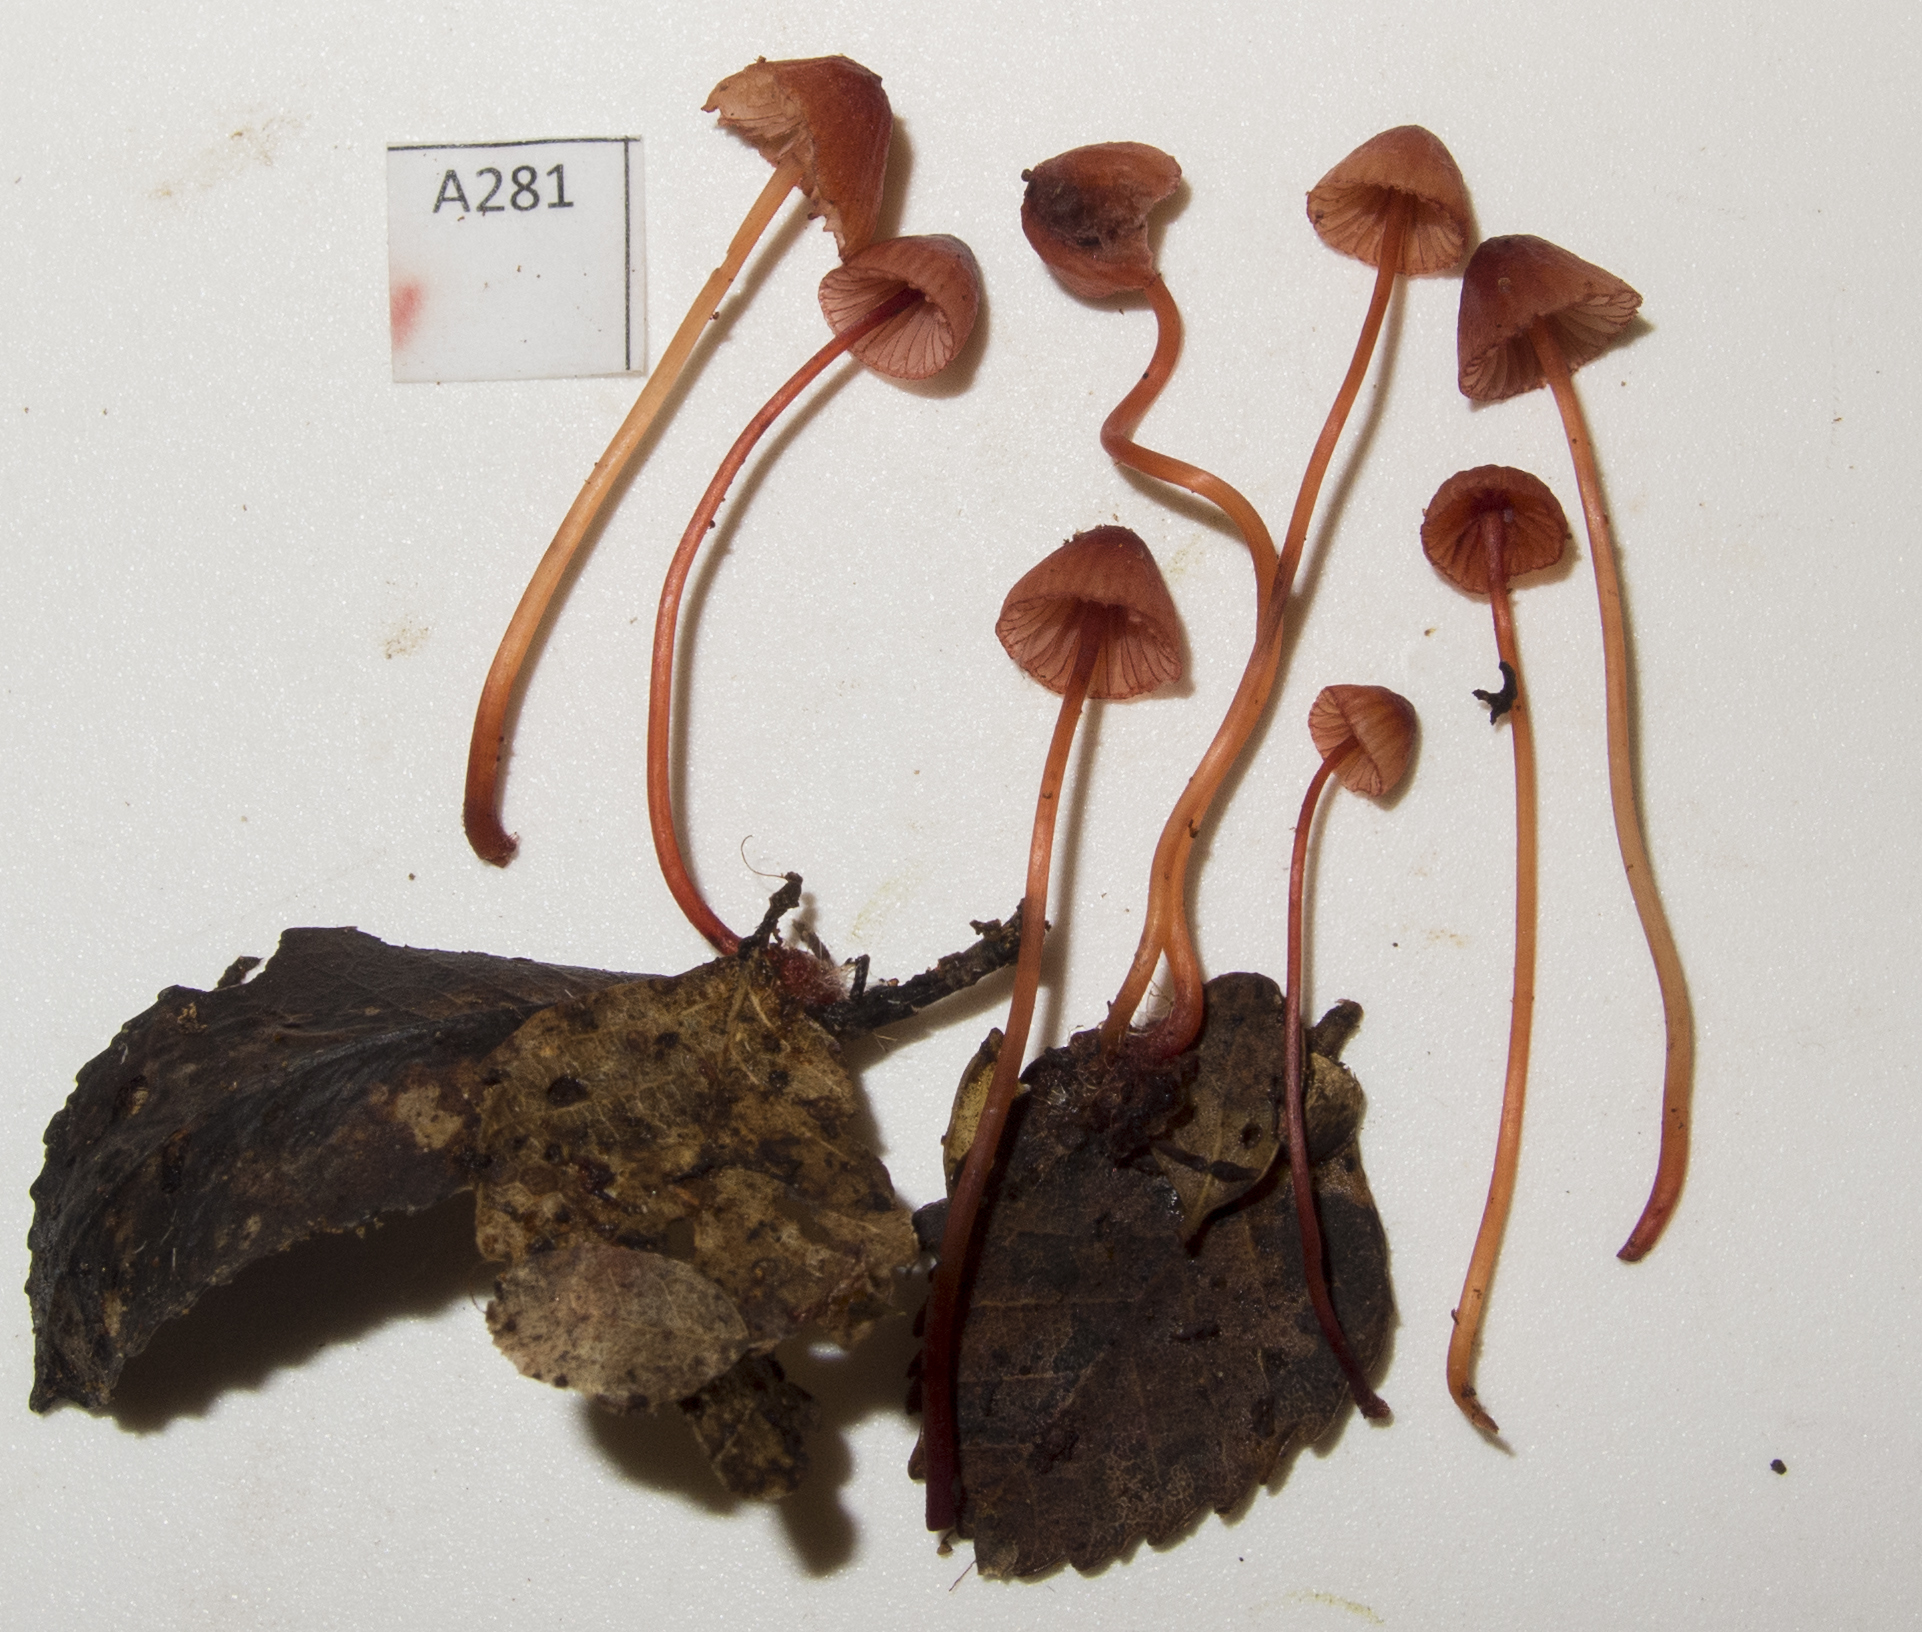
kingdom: Fungi
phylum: Basidiomycota
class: Agaricomycetes
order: Agaricales
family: Mycenaceae
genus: Mycena
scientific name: Mycena ura
